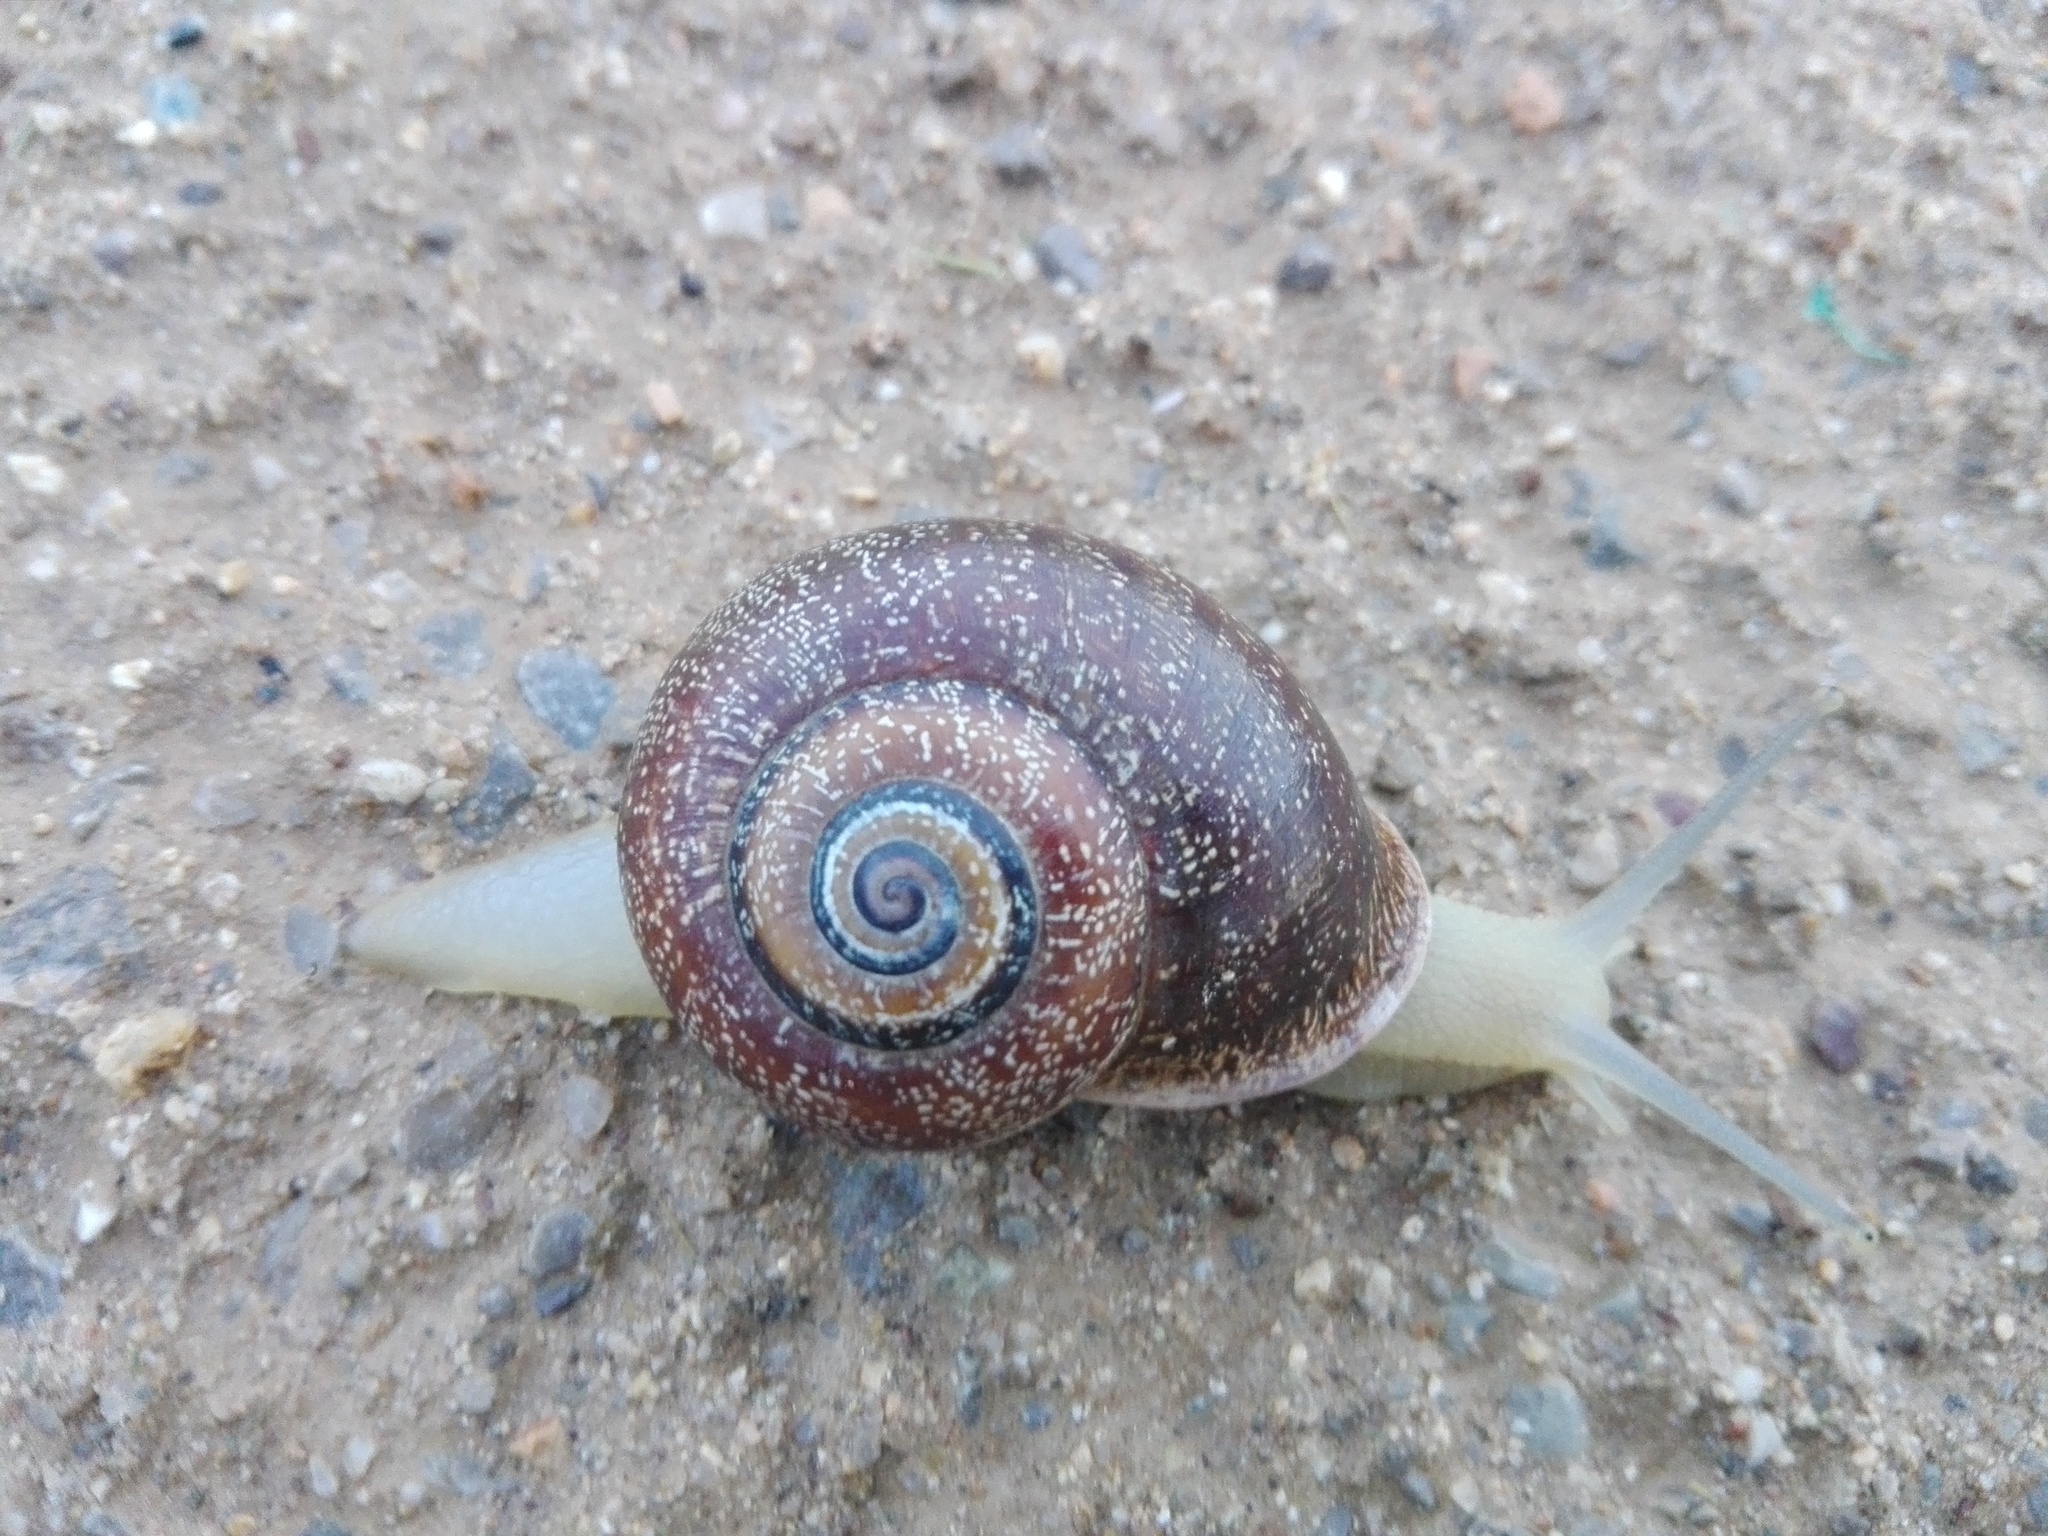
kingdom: Animalia
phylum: Mollusca
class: Gastropoda
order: Stylommatophora
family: Helicidae
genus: Otala
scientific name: Otala punctata
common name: Milk snail
